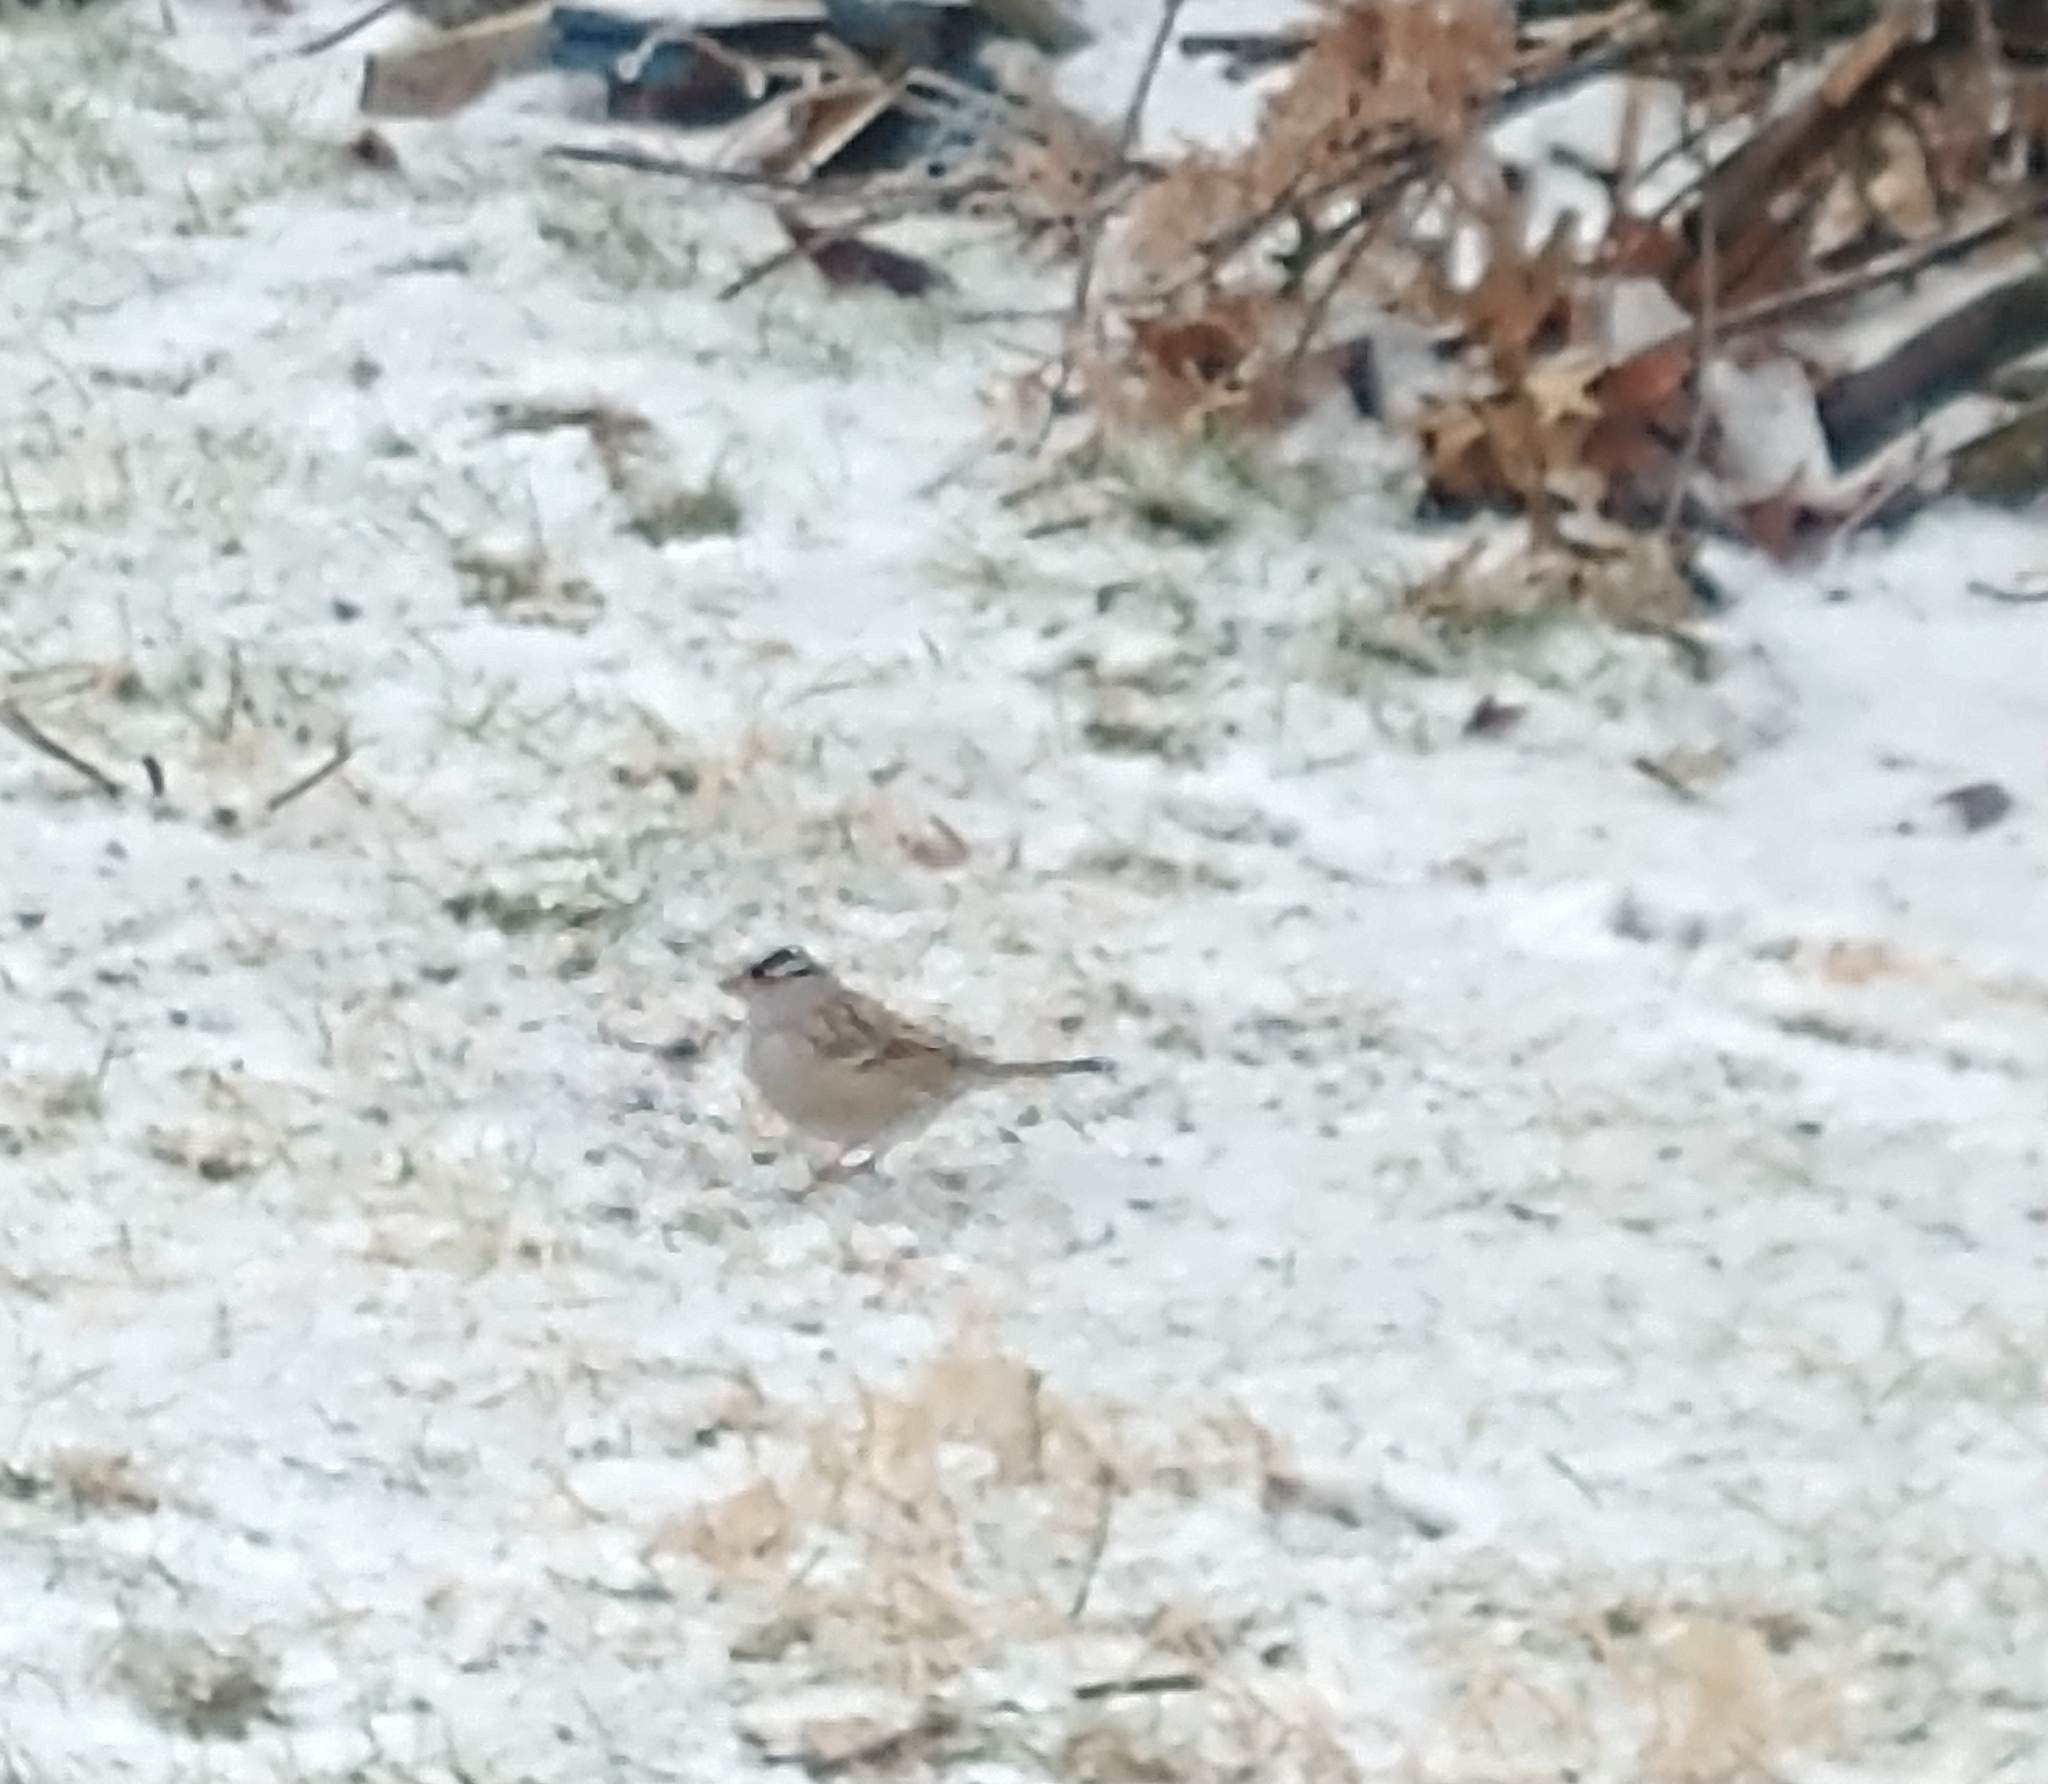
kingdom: Animalia
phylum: Chordata
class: Aves
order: Passeriformes
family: Passerellidae
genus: Zonotrichia
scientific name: Zonotrichia leucophrys
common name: White-crowned sparrow
